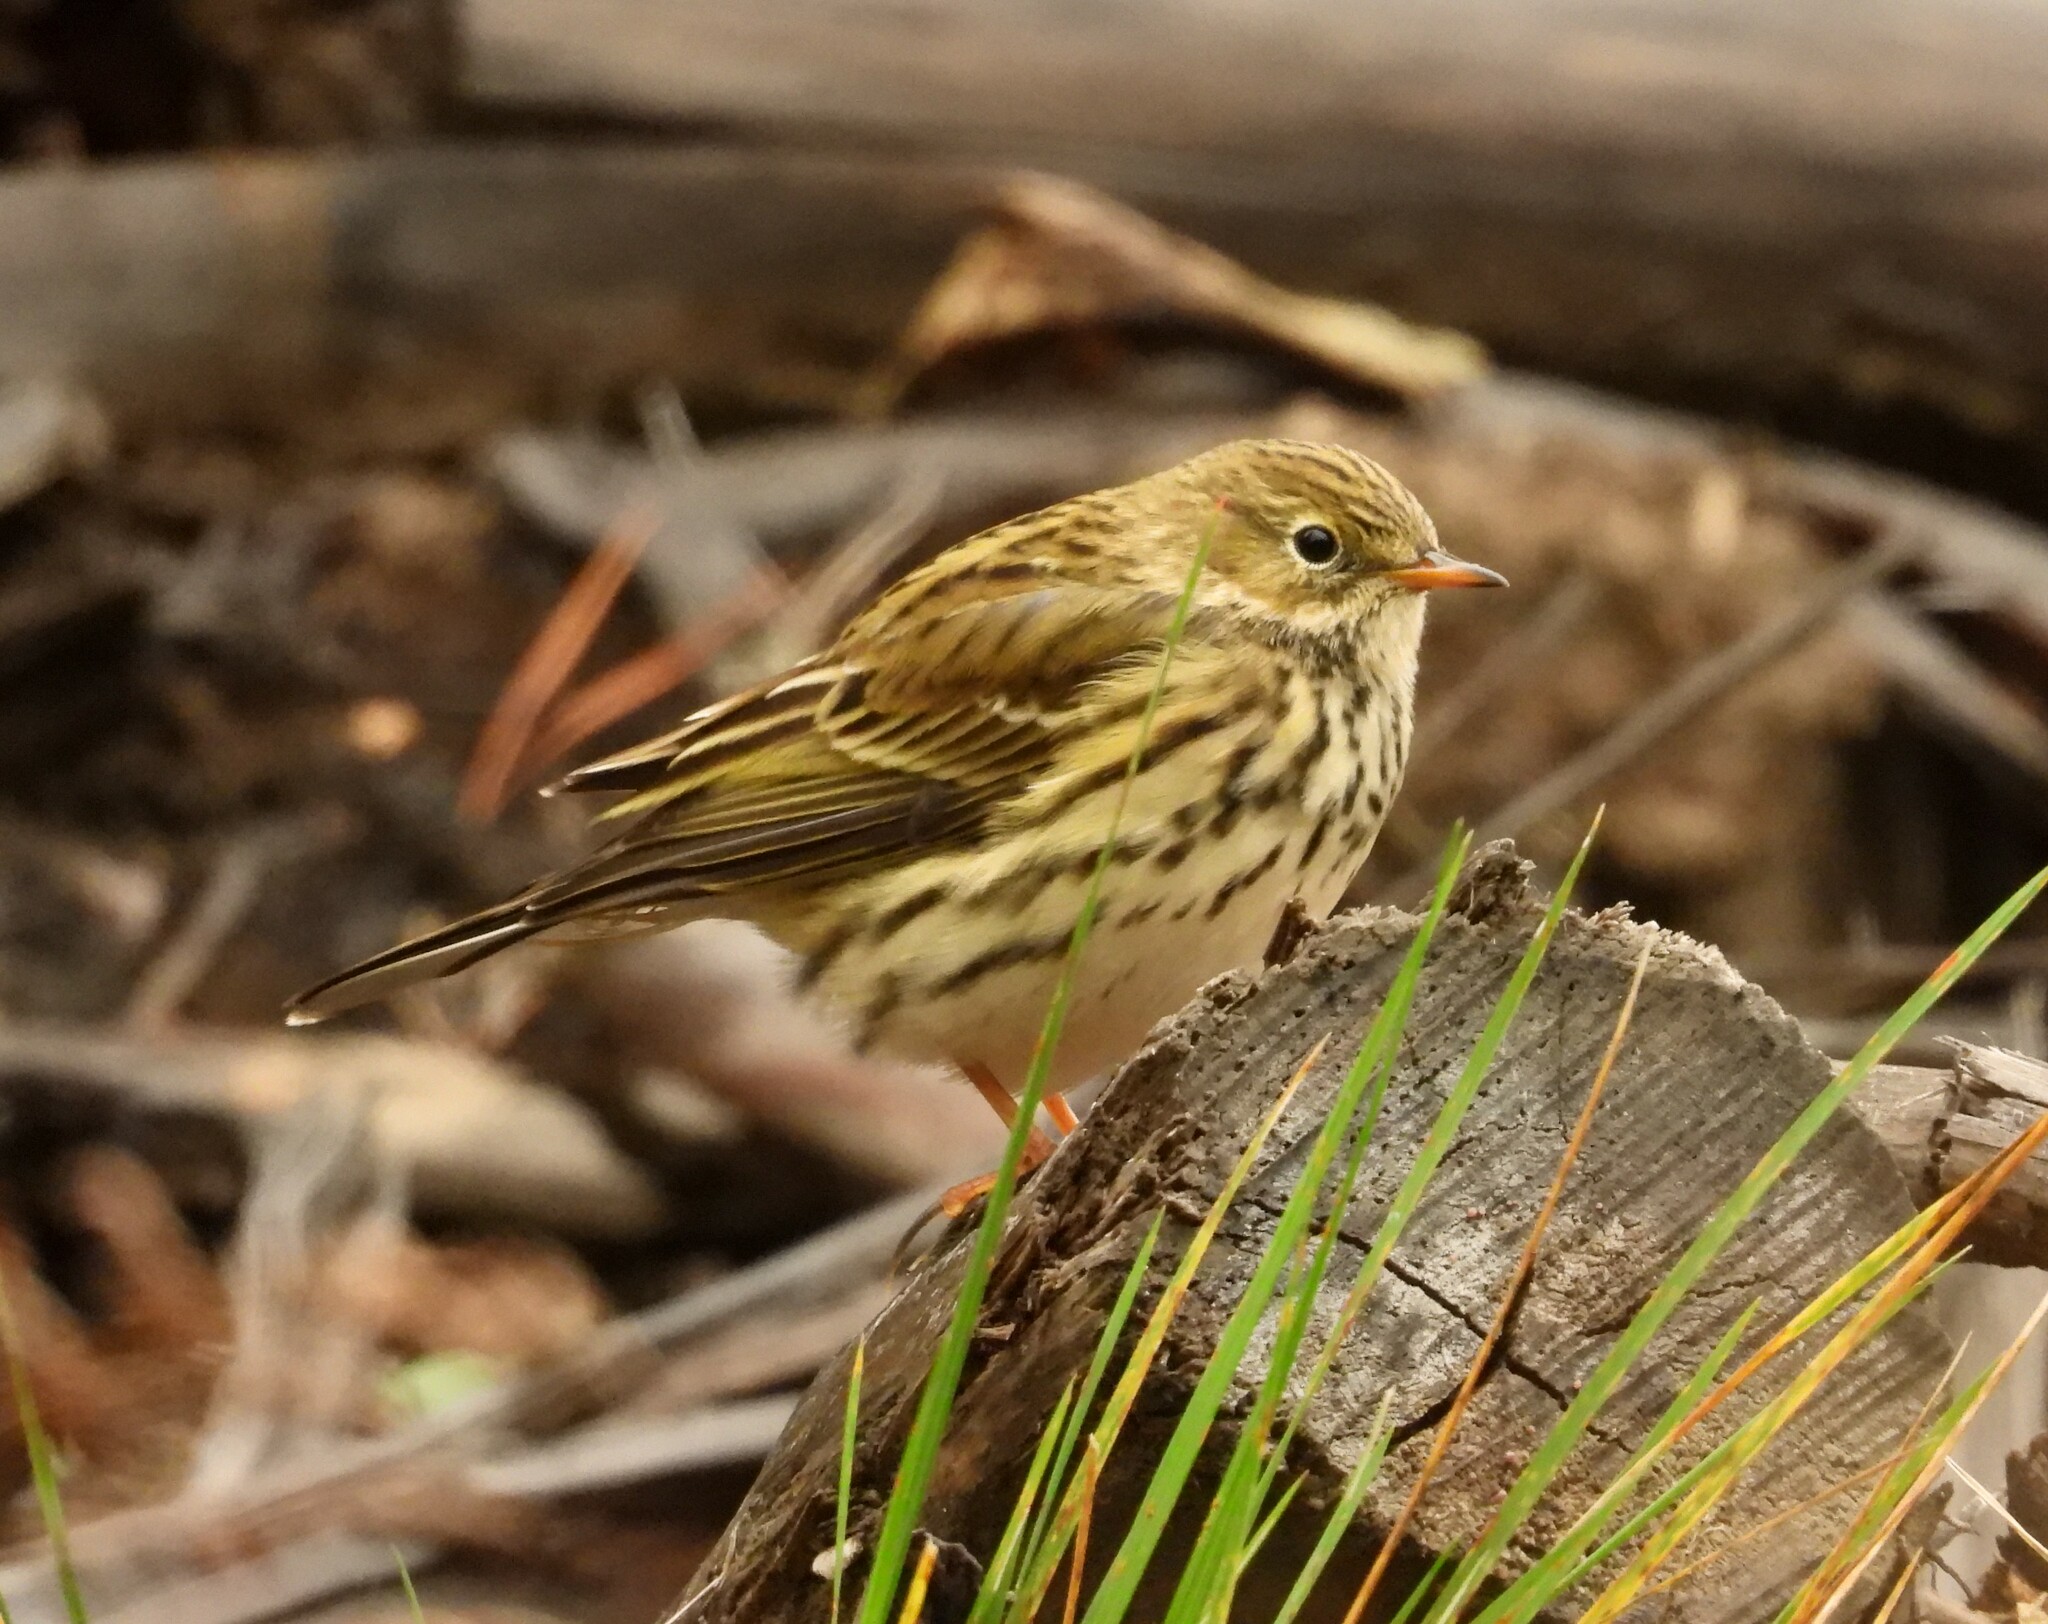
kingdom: Animalia
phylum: Chordata
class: Aves
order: Passeriformes
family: Motacillidae
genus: Anthus
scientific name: Anthus pratensis
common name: Meadow pipit
